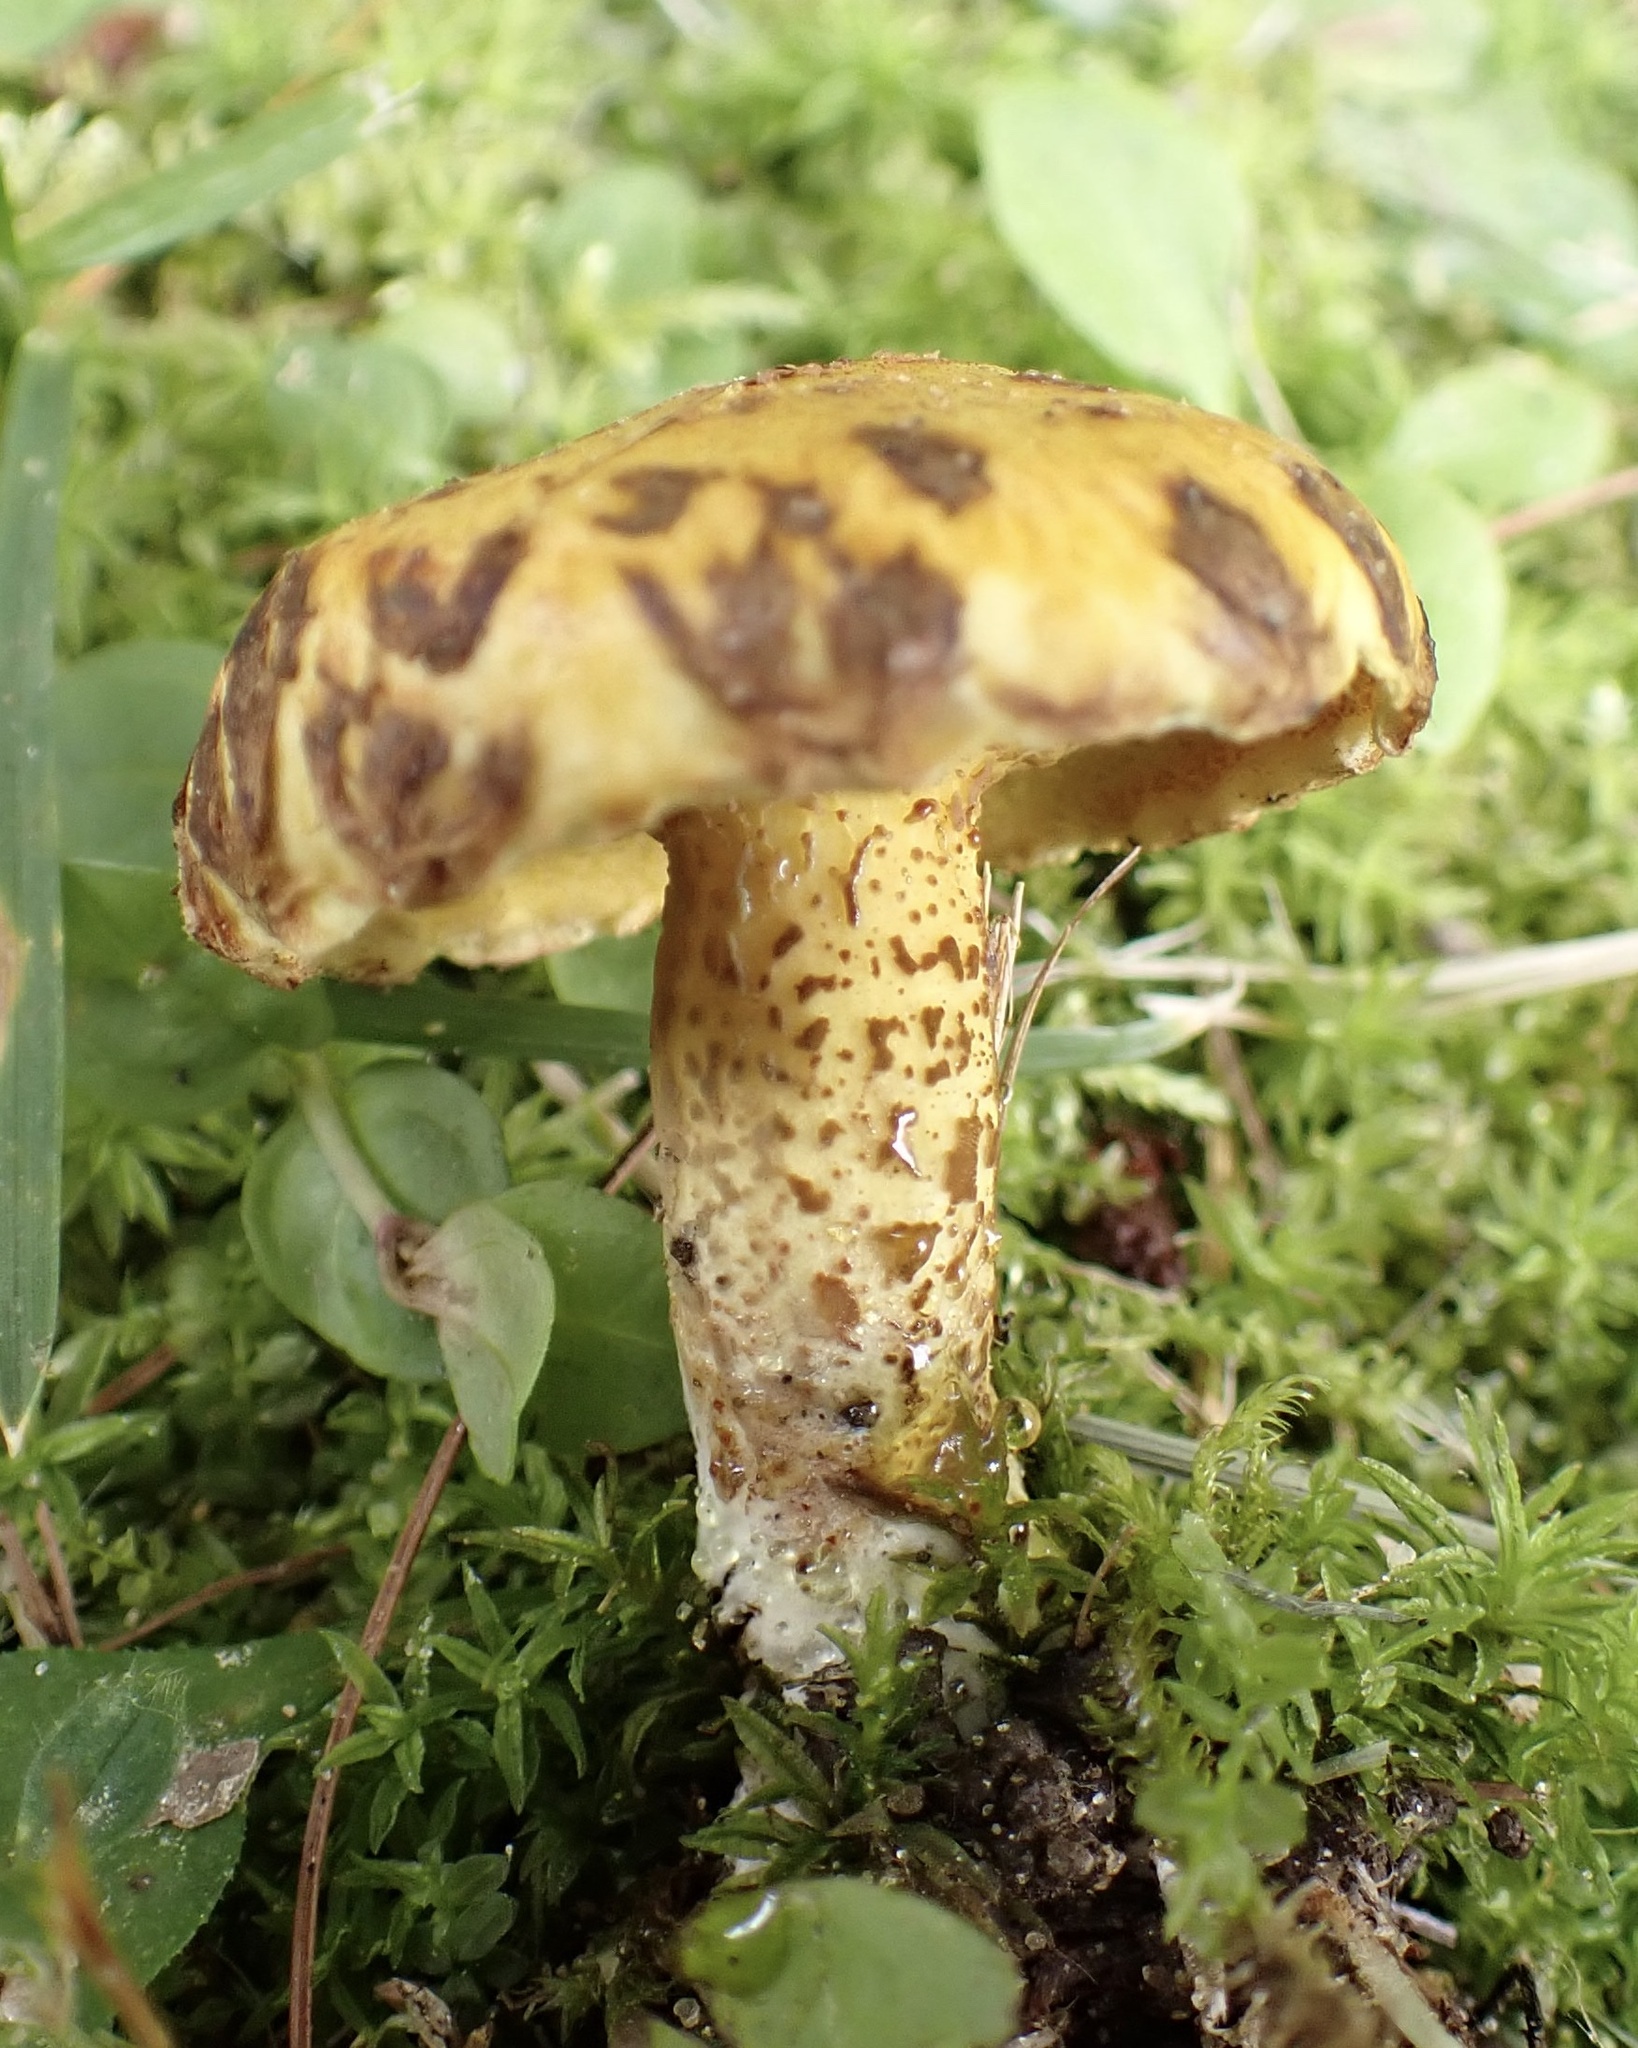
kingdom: Fungi
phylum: Basidiomycota
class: Agaricomycetes
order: Boletales
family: Suillaceae
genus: Suillus
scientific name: Suillus americanus
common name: Chicken fat mushroom
